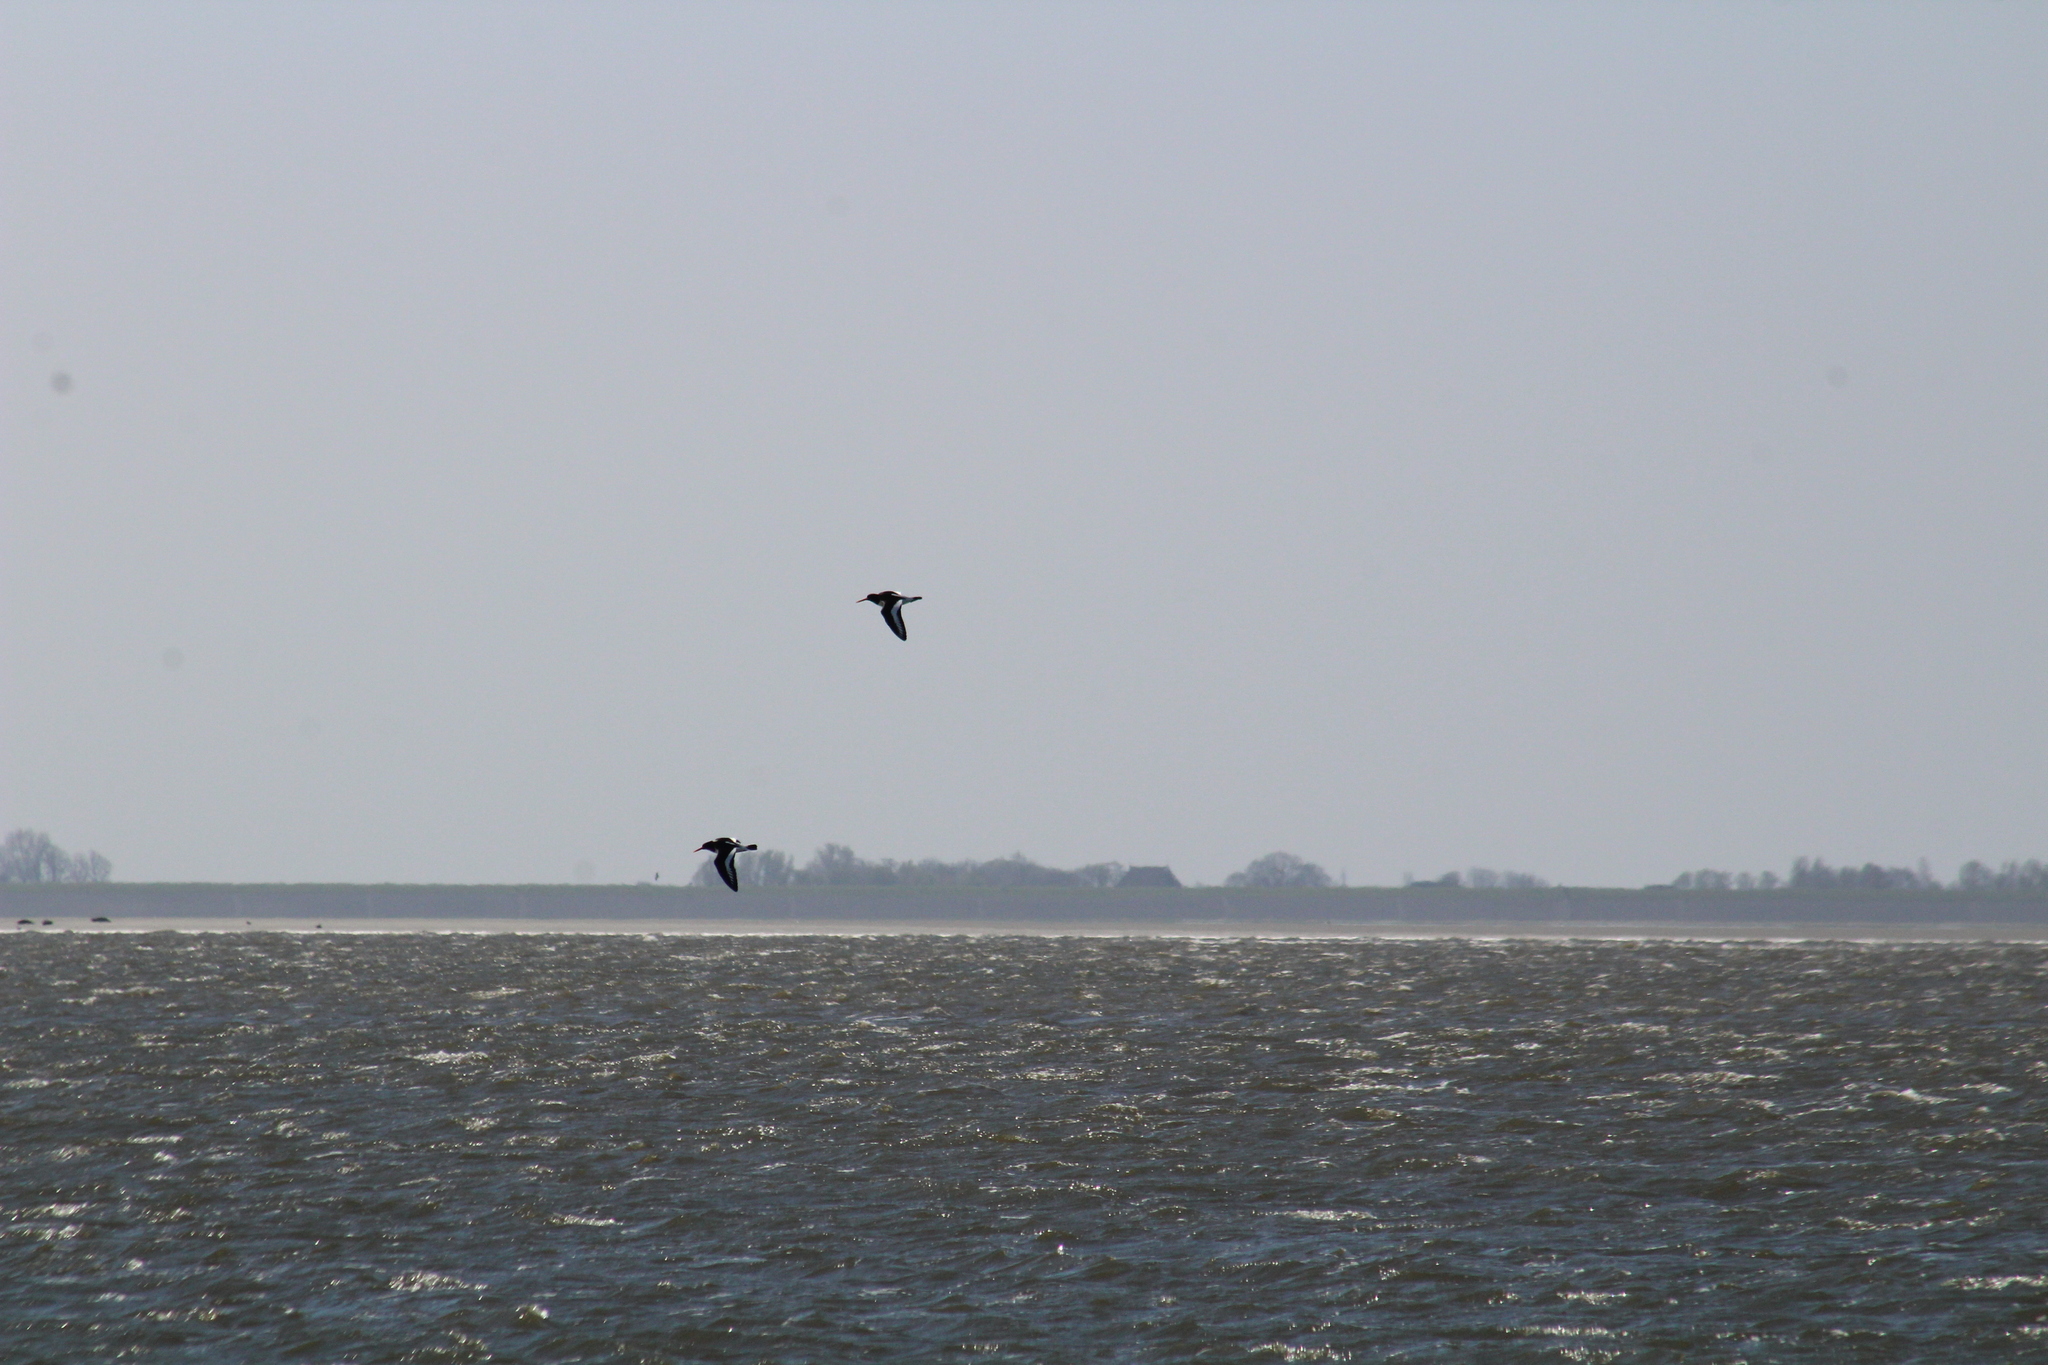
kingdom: Animalia
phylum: Chordata
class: Aves
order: Charadriiformes
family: Haematopodidae
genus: Haematopus
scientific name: Haematopus ostralegus
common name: Eurasian oystercatcher
